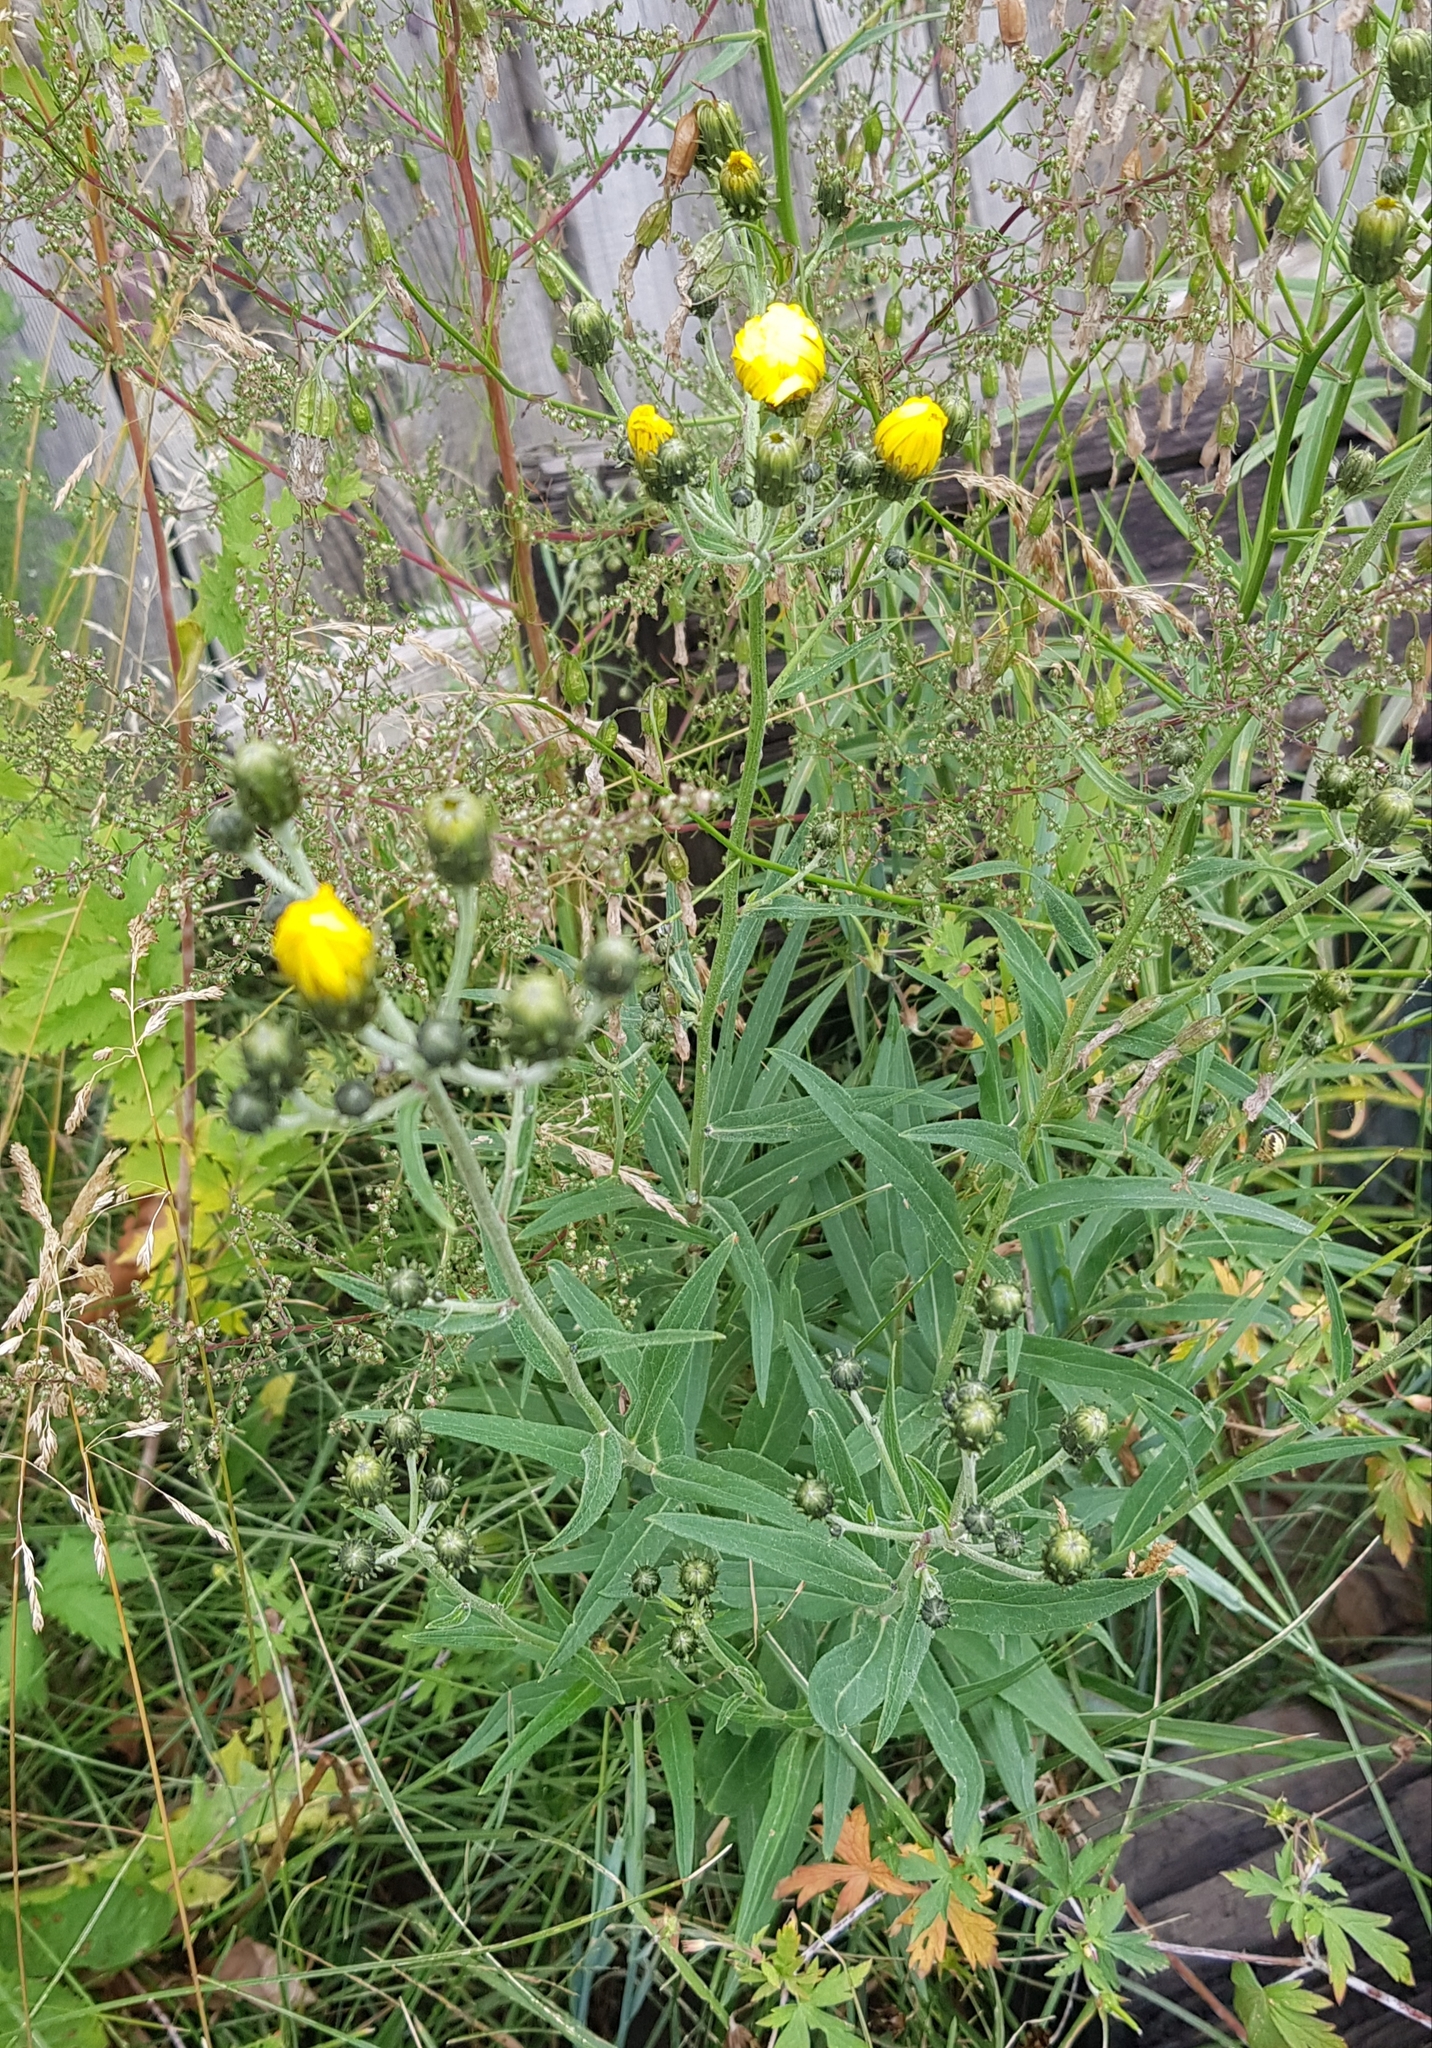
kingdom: Plantae
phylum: Tracheophyta
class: Magnoliopsida
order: Asterales
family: Asteraceae
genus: Hieracium
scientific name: Hieracium umbellatum
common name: Northern hawkweed
